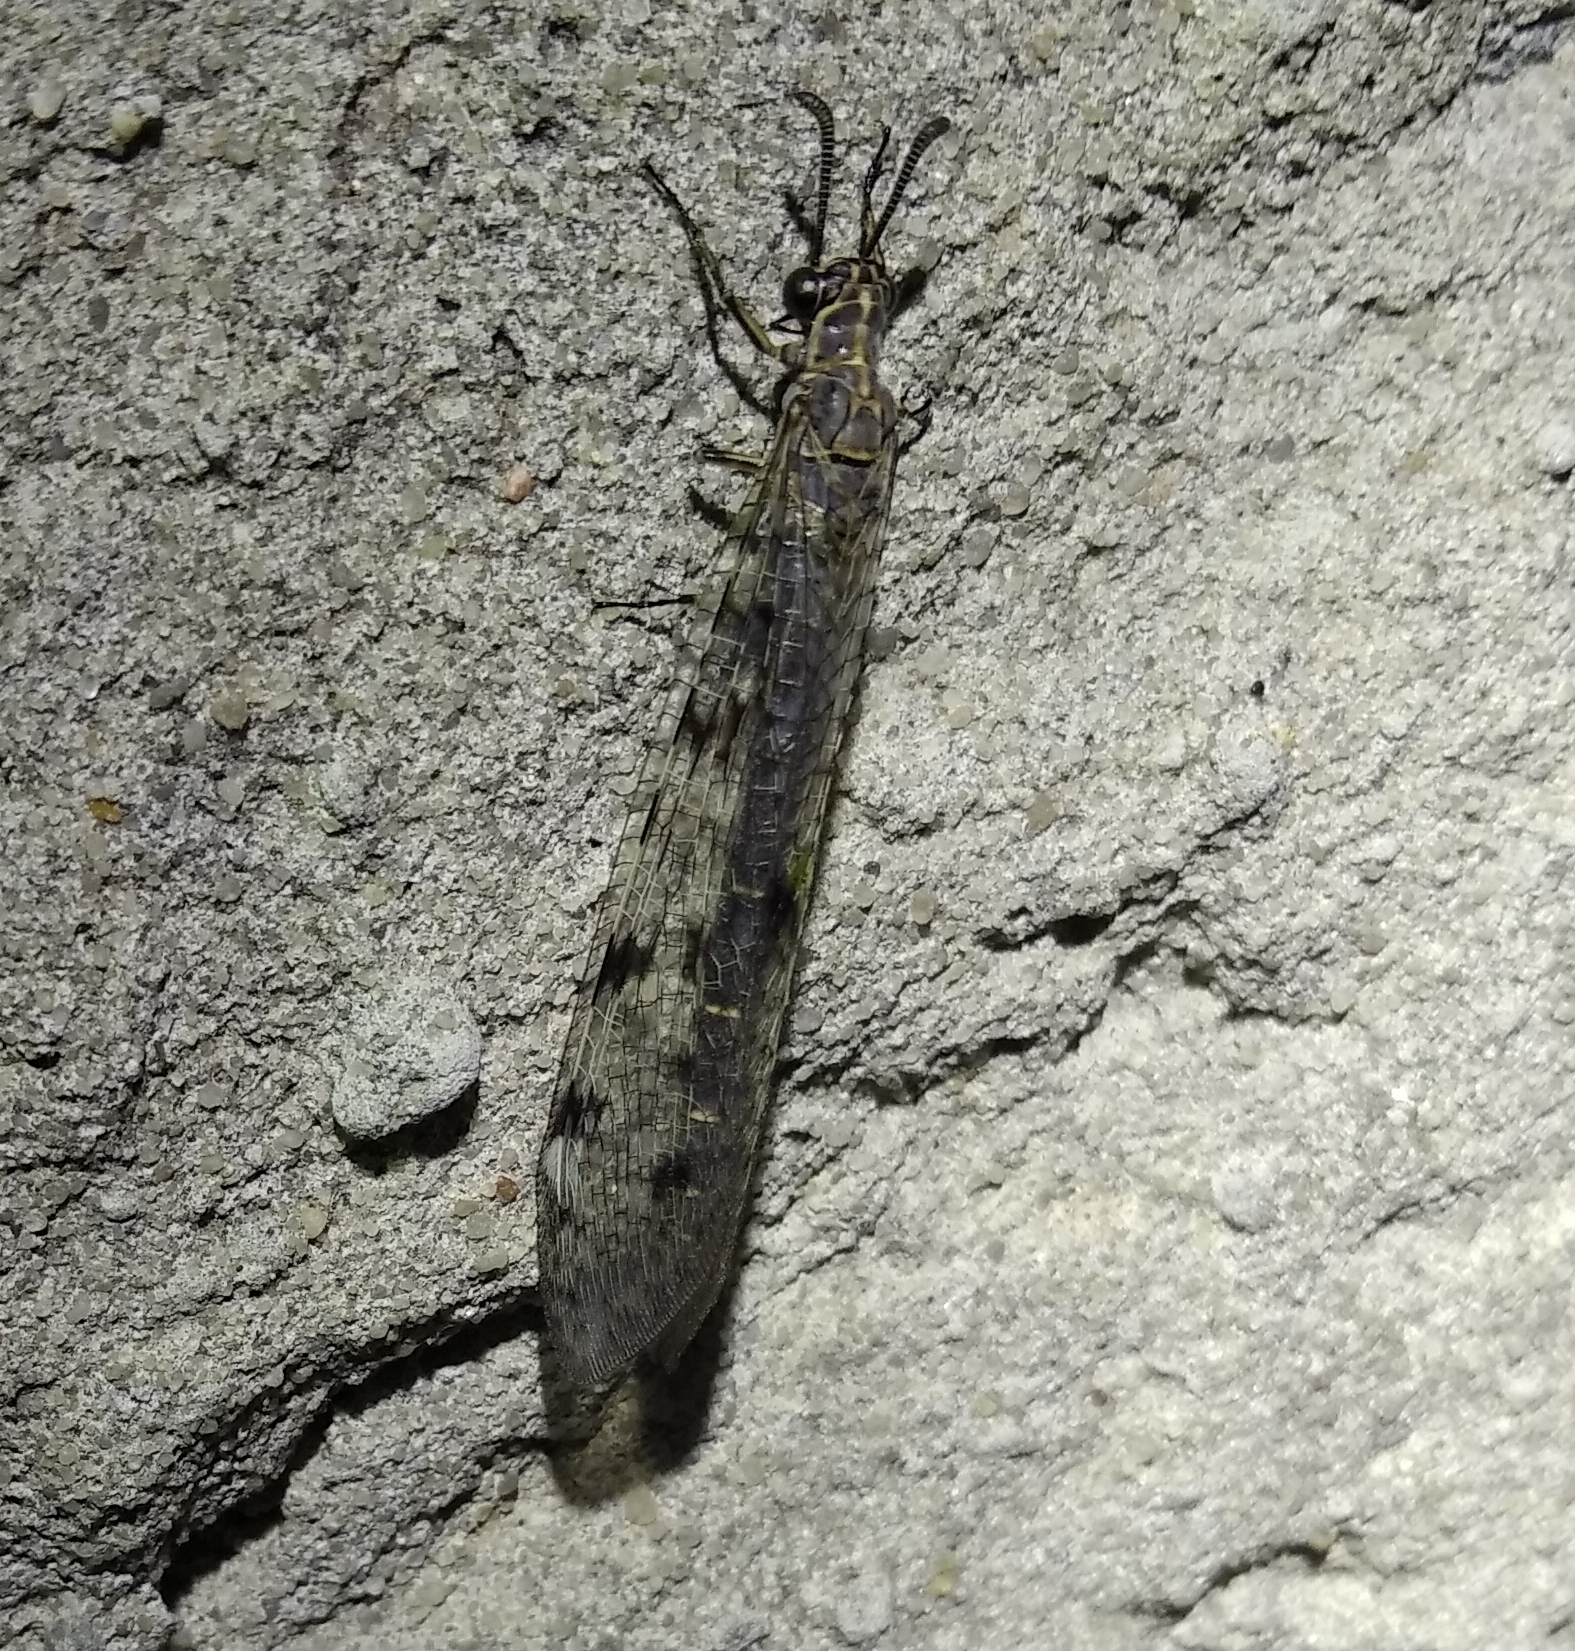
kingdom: Animalia
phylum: Arthropoda
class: Insecta
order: Neuroptera
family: Myrmeleontidae
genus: Euroleon
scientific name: Euroleon nostras
